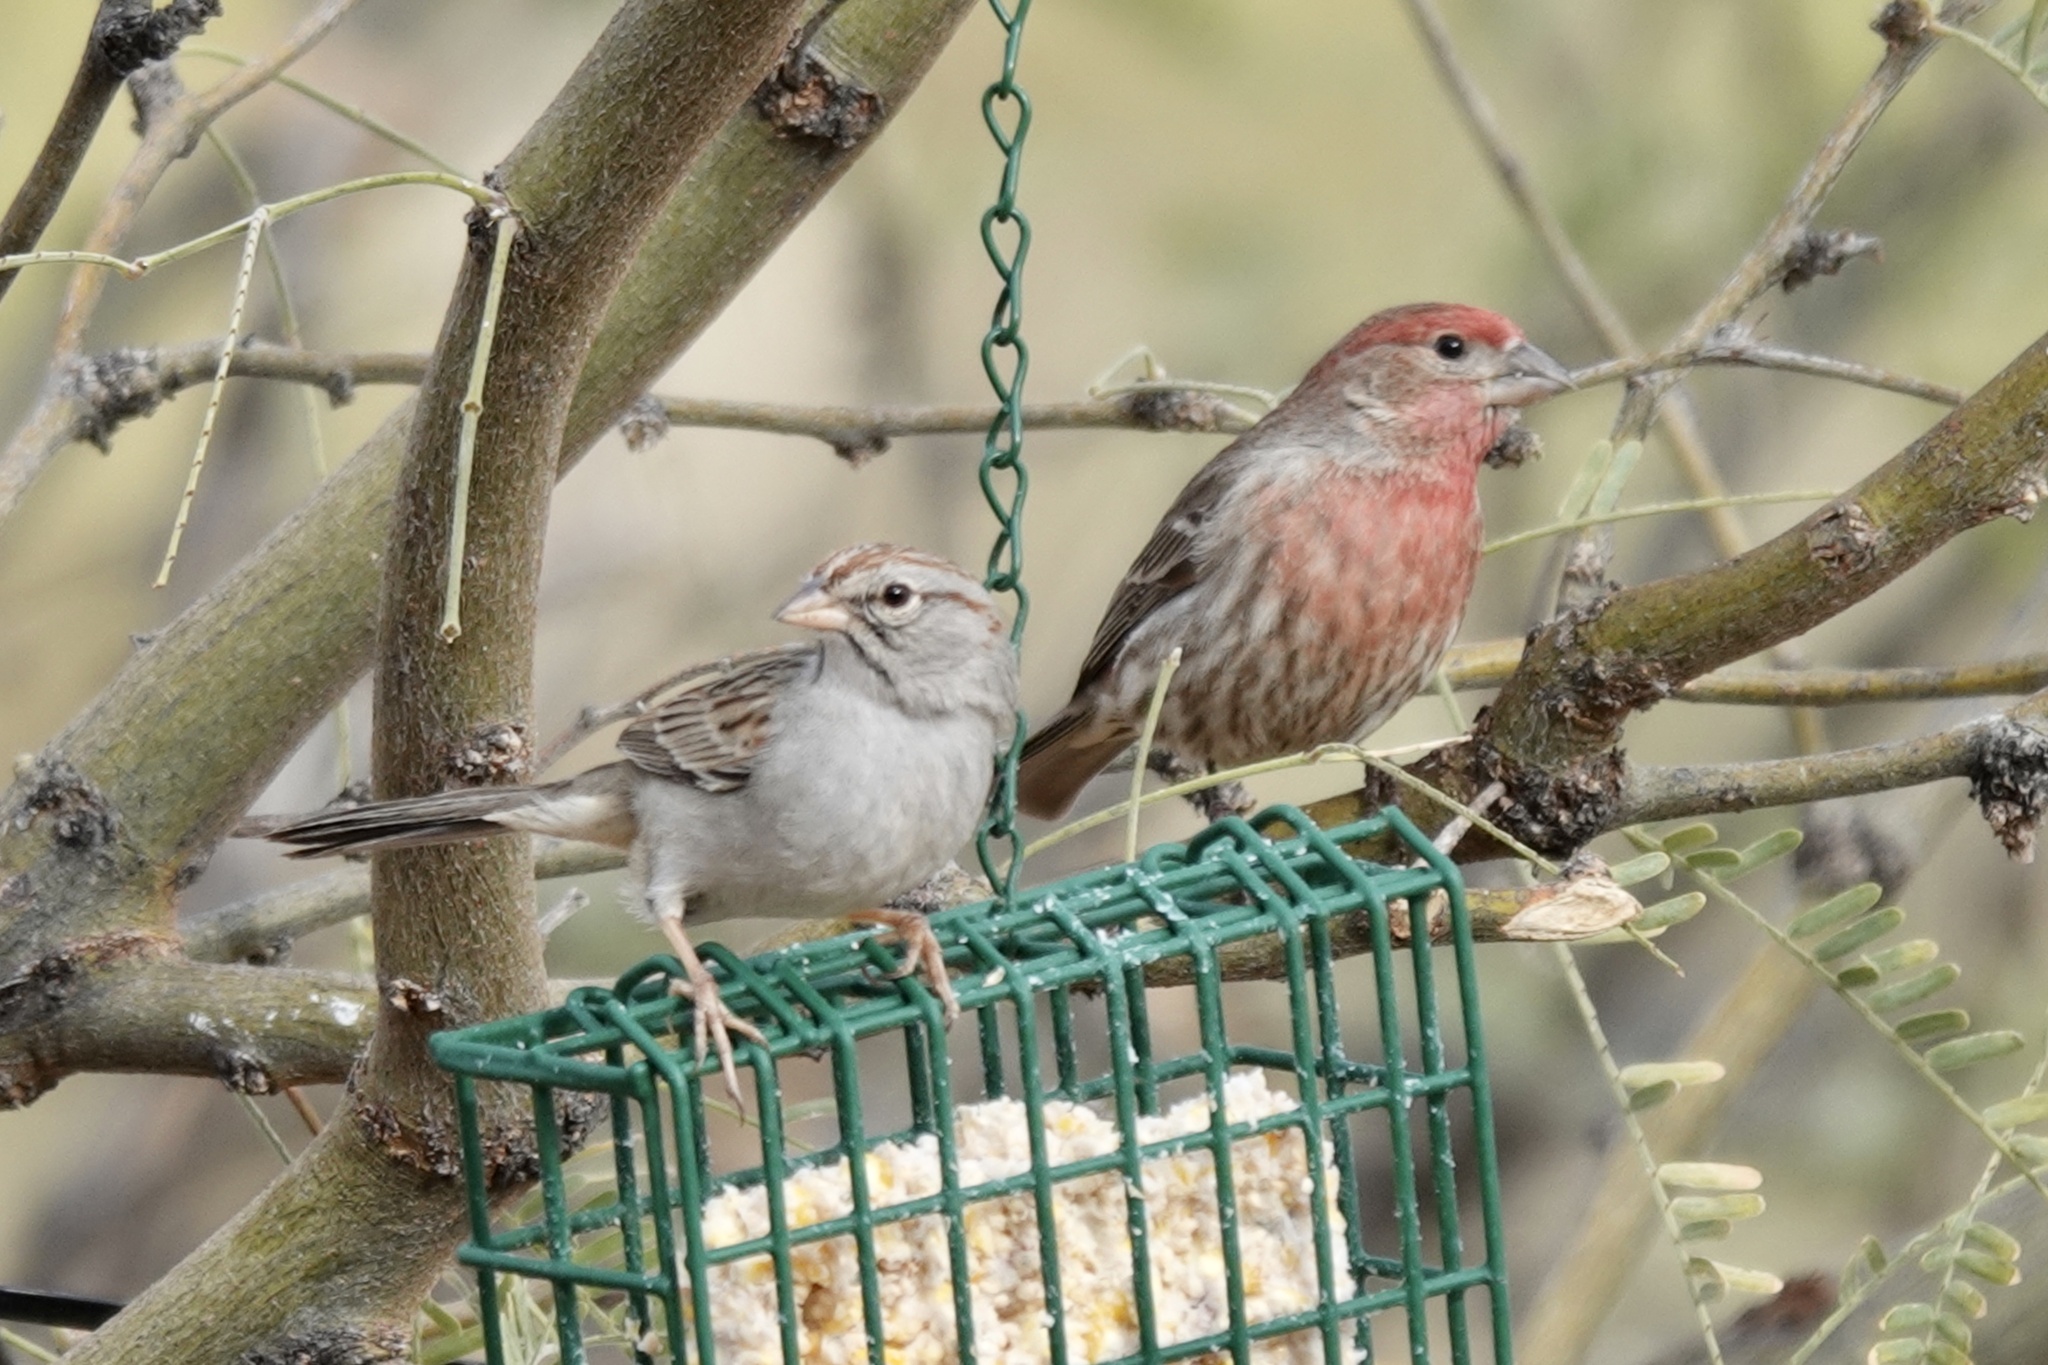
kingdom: Animalia
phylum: Chordata
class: Aves
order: Passeriformes
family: Fringillidae
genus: Haemorhous
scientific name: Haemorhous mexicanus
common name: House finch
